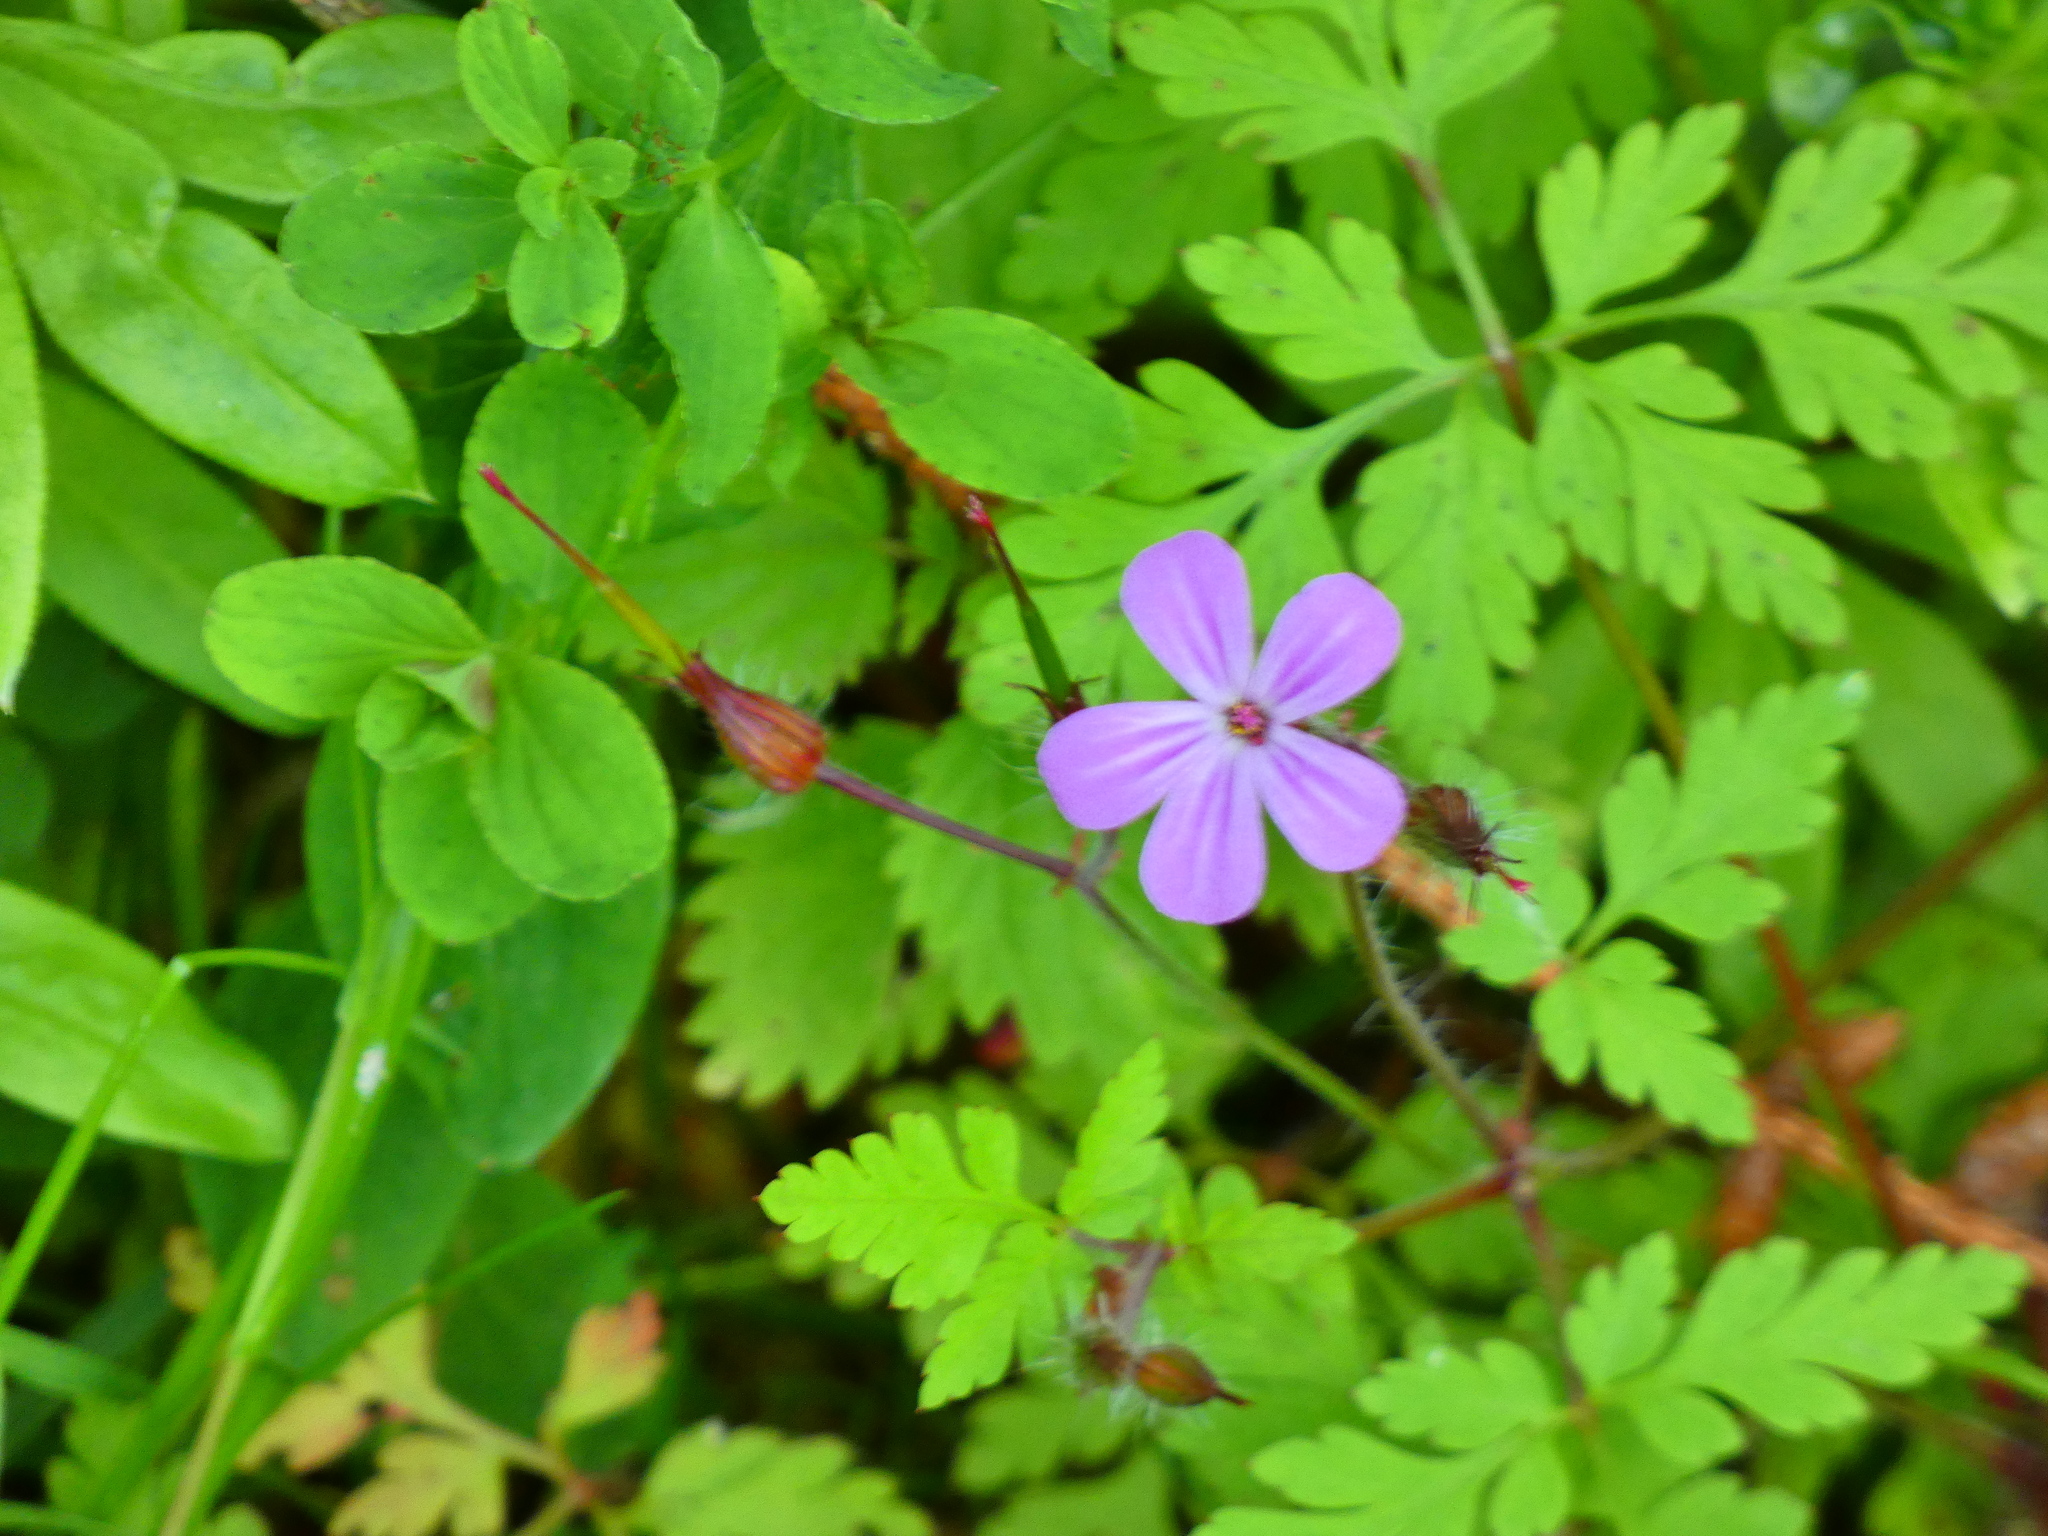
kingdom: Plantae
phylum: Tracheophyta
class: Magnoliopsida
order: Geraniales
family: Geraniaceae
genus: Geranium
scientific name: Geranium robertianum
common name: Herb-robert
